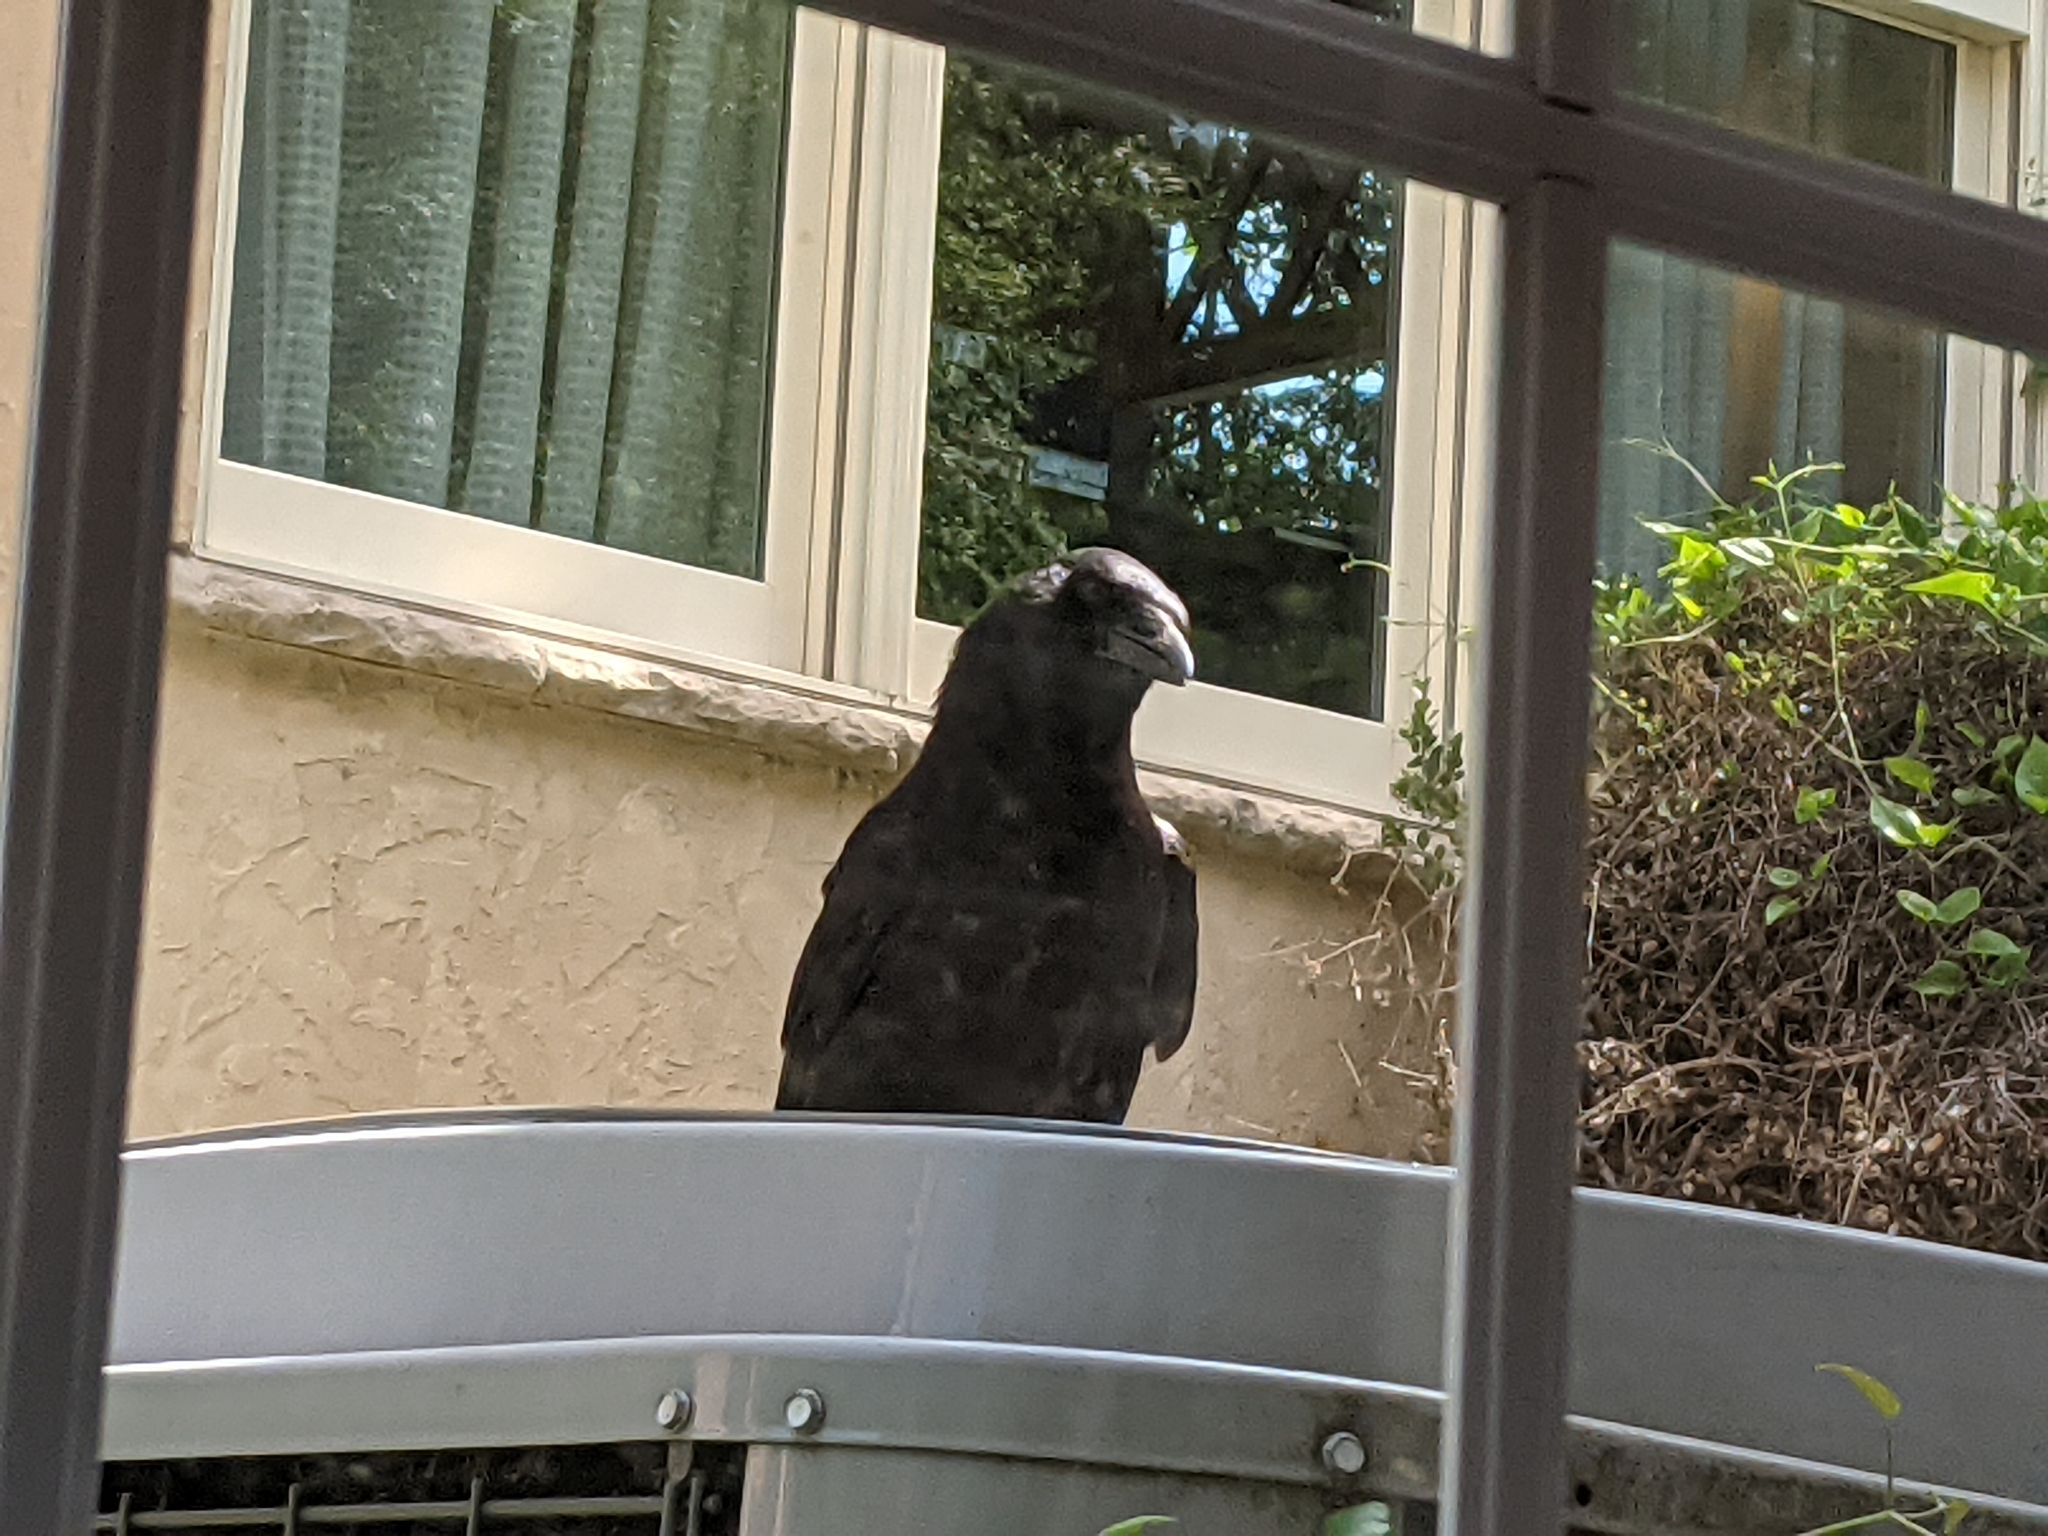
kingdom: Animalia
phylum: Chordata
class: Aves
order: Passeriformes
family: Corvidae
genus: Corvus
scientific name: Corvus brachyrhynchos
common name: American crow
